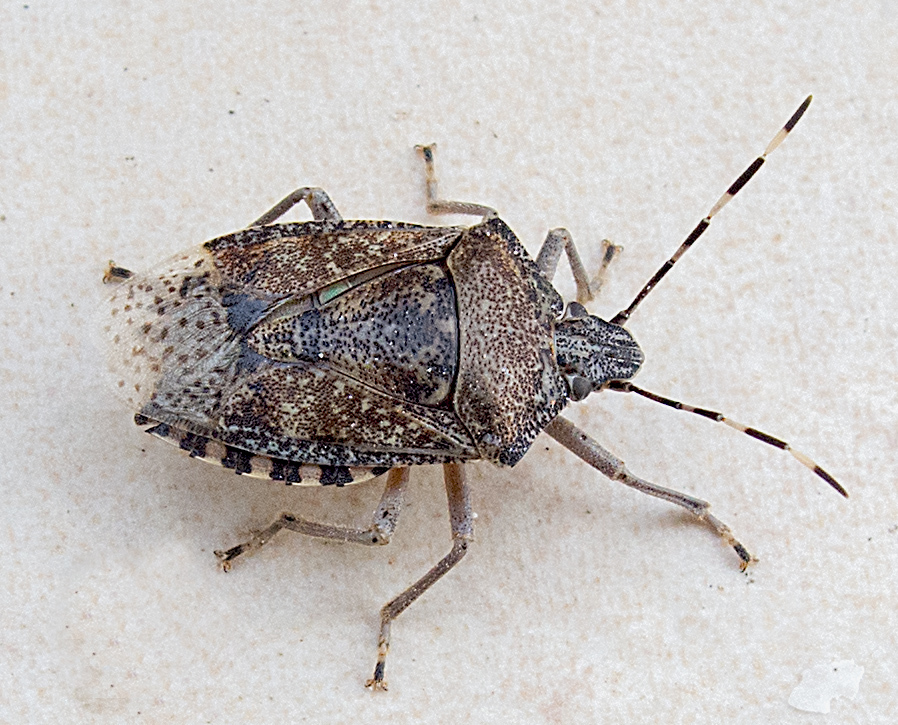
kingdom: Animalia
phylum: Arthropoda
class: Insecta
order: Hemiptera
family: Pentatomidae
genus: Rhaphigaster
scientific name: Rhaphigaster nebulosa
